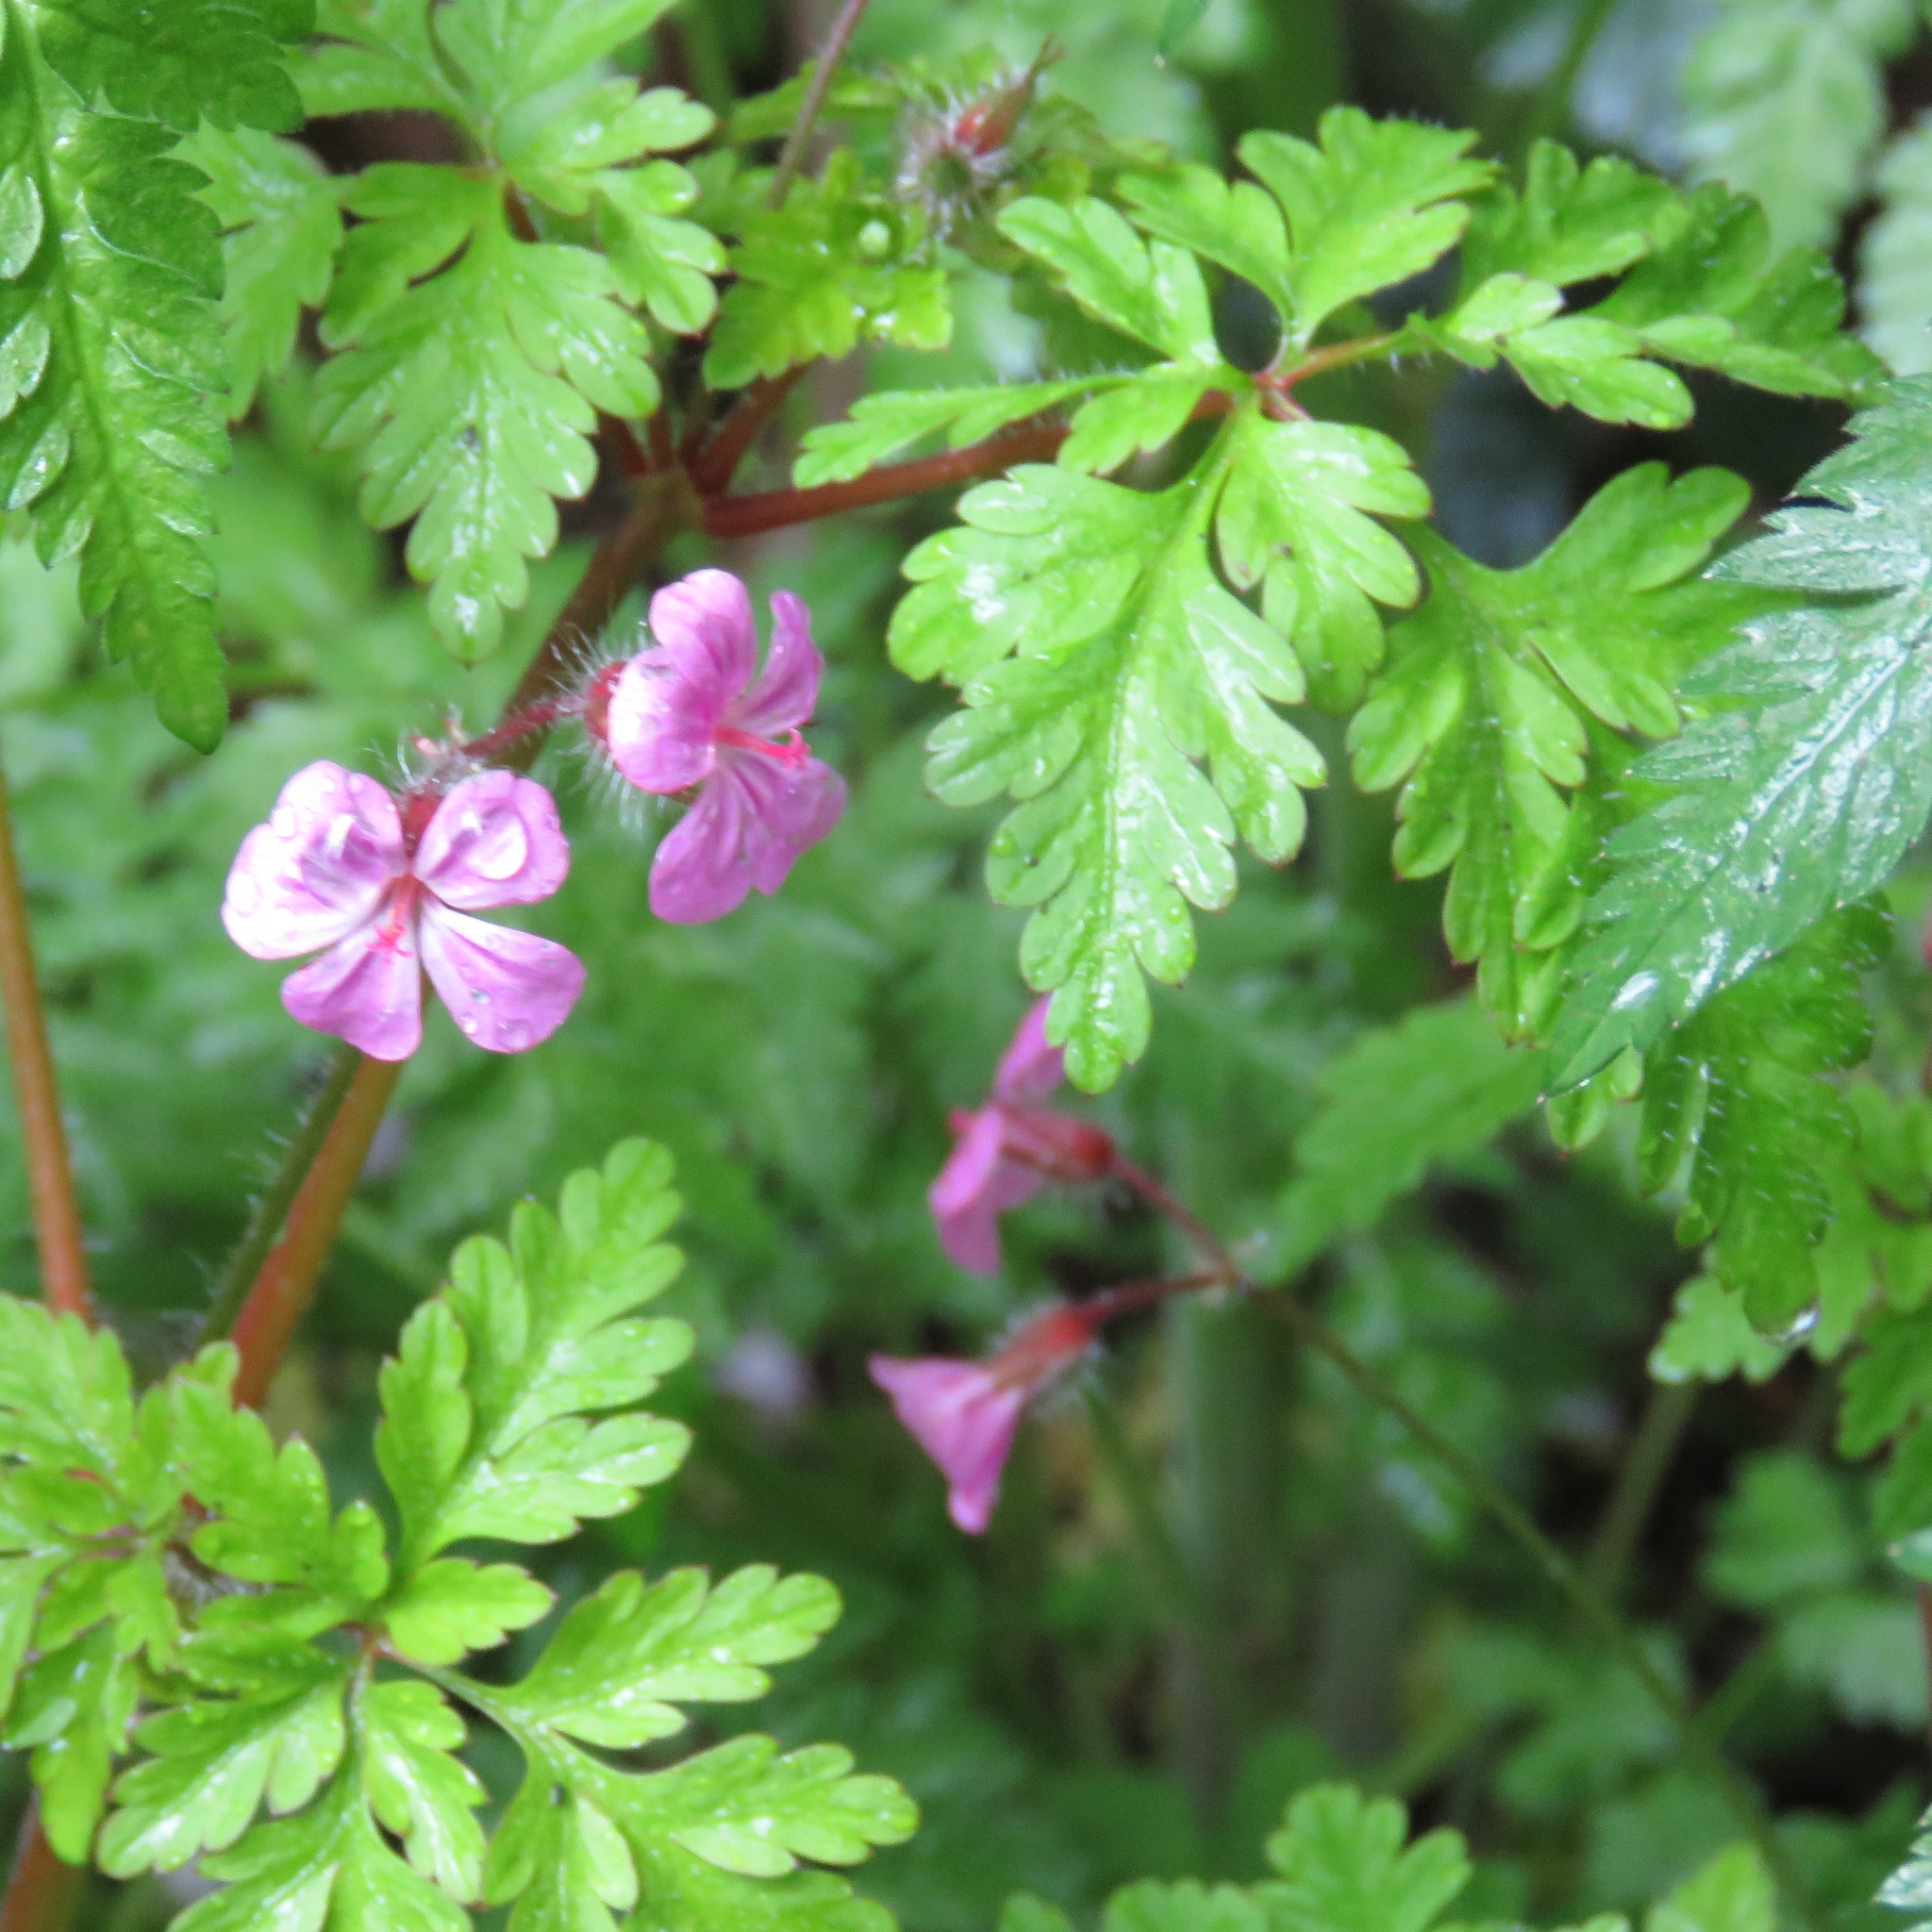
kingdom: Plantae
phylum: Tracheophyta
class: Magnoliopsida
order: Geraniales
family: Geraniaceae
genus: Geranium
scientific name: Geranium robertianum
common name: Herb-robert
